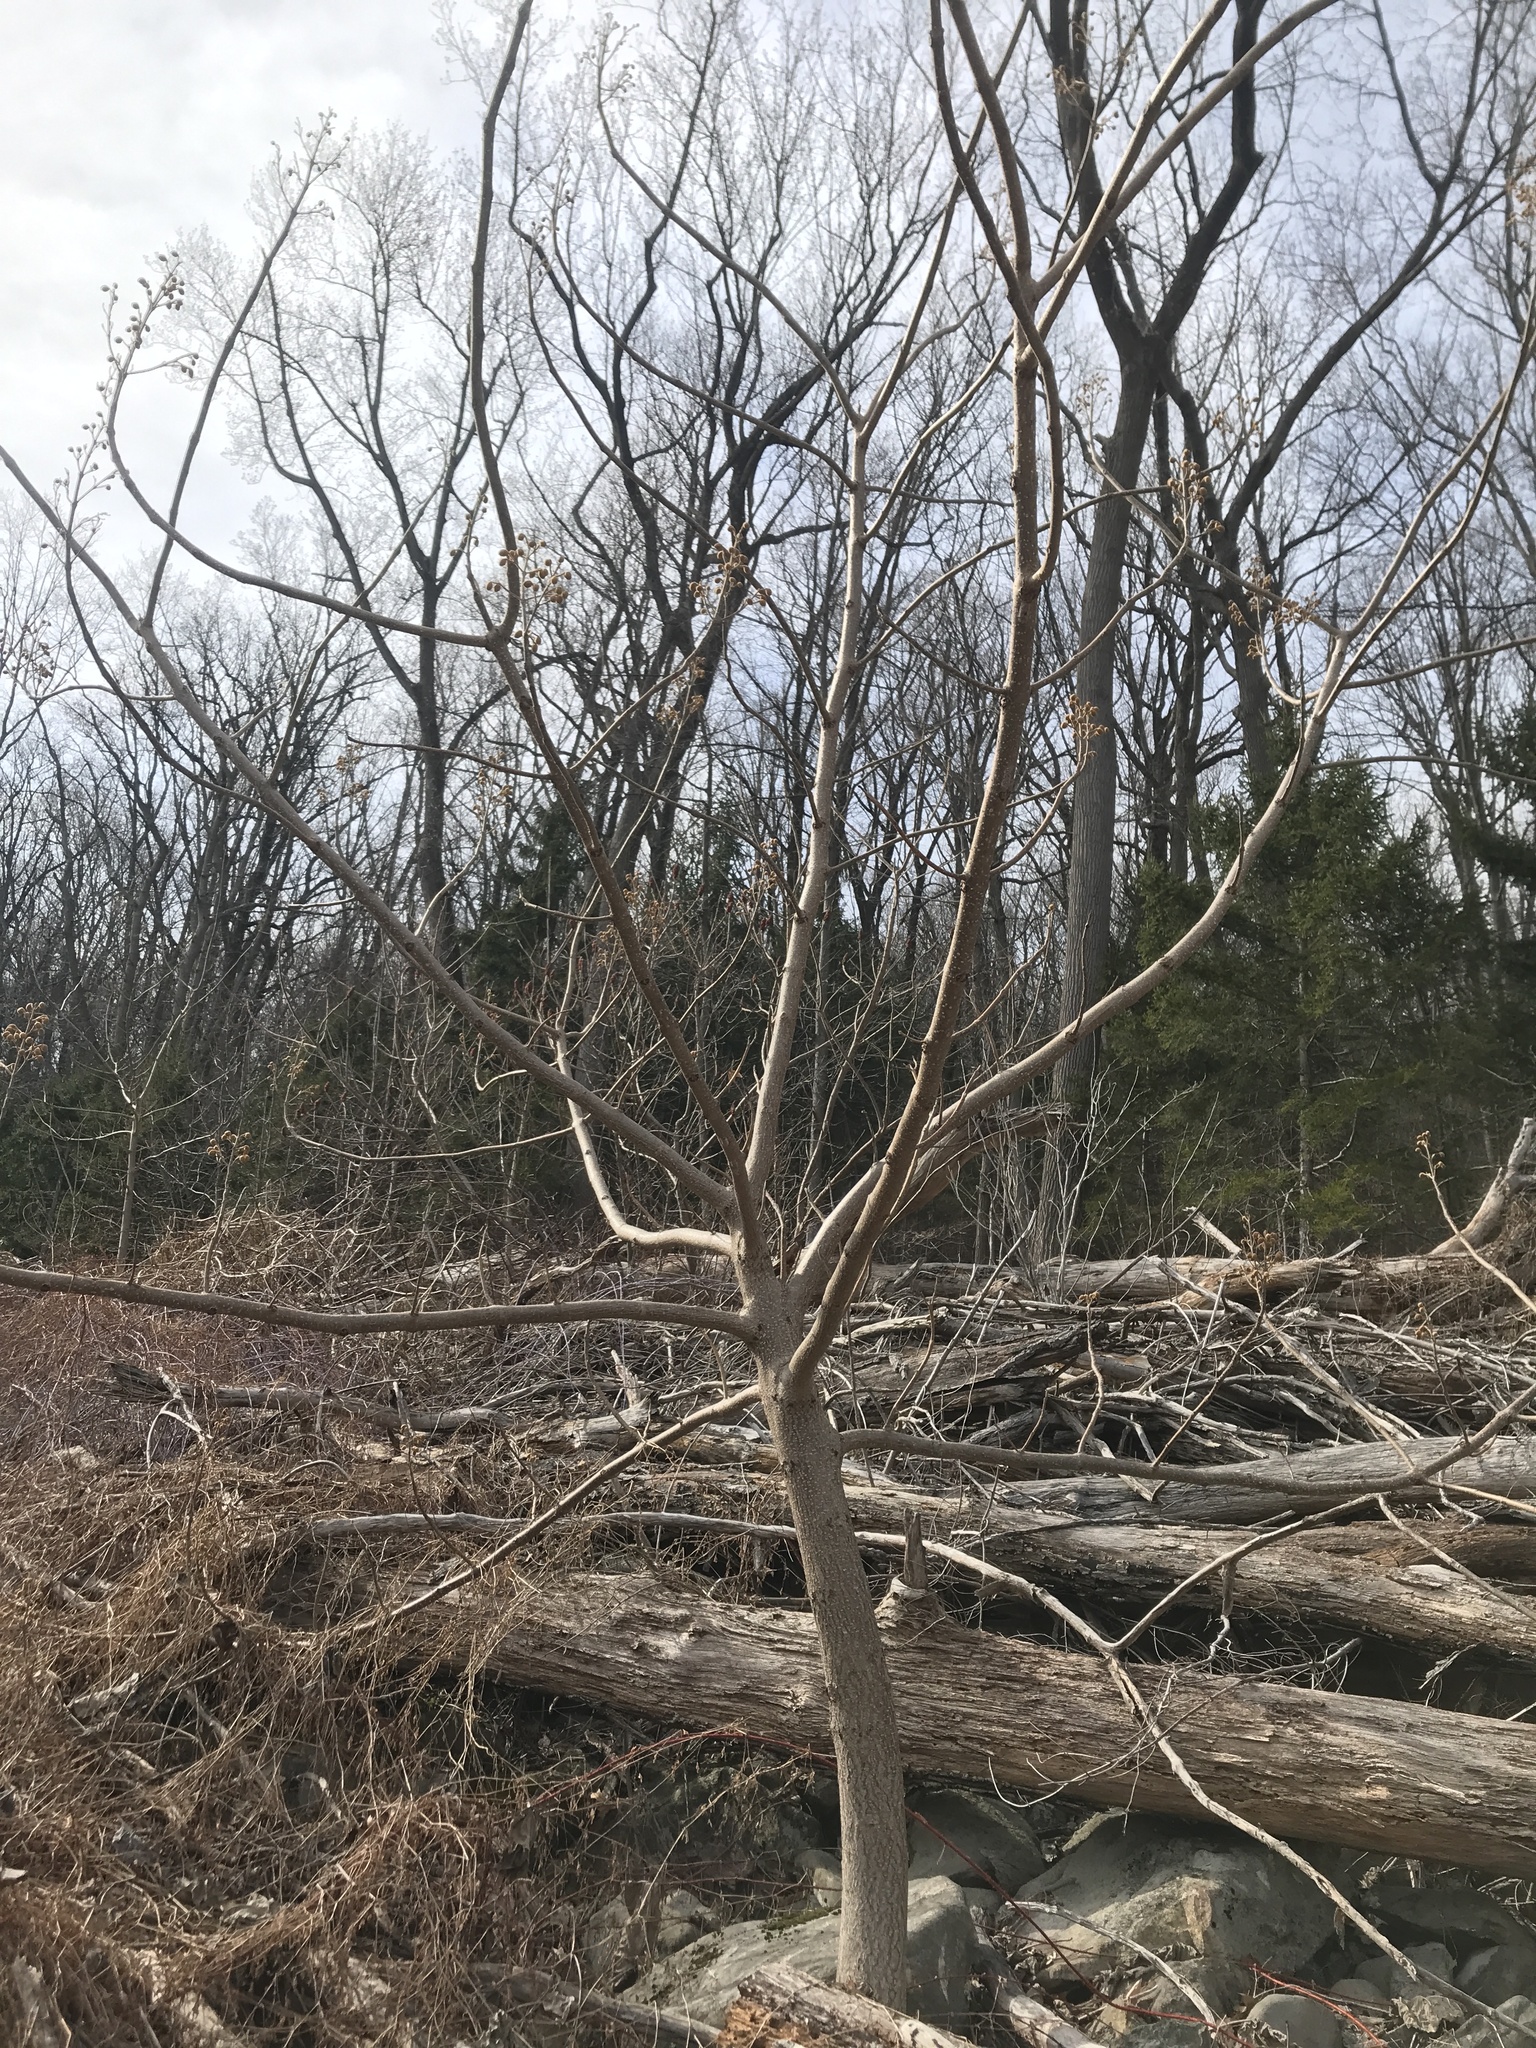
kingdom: Plantae
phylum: Tracheophyta
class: Magnoliopsida
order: Lamiales
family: Paulowniaceae
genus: Paulownia
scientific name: Paulownia tomentosa
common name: Foxglove-tree
